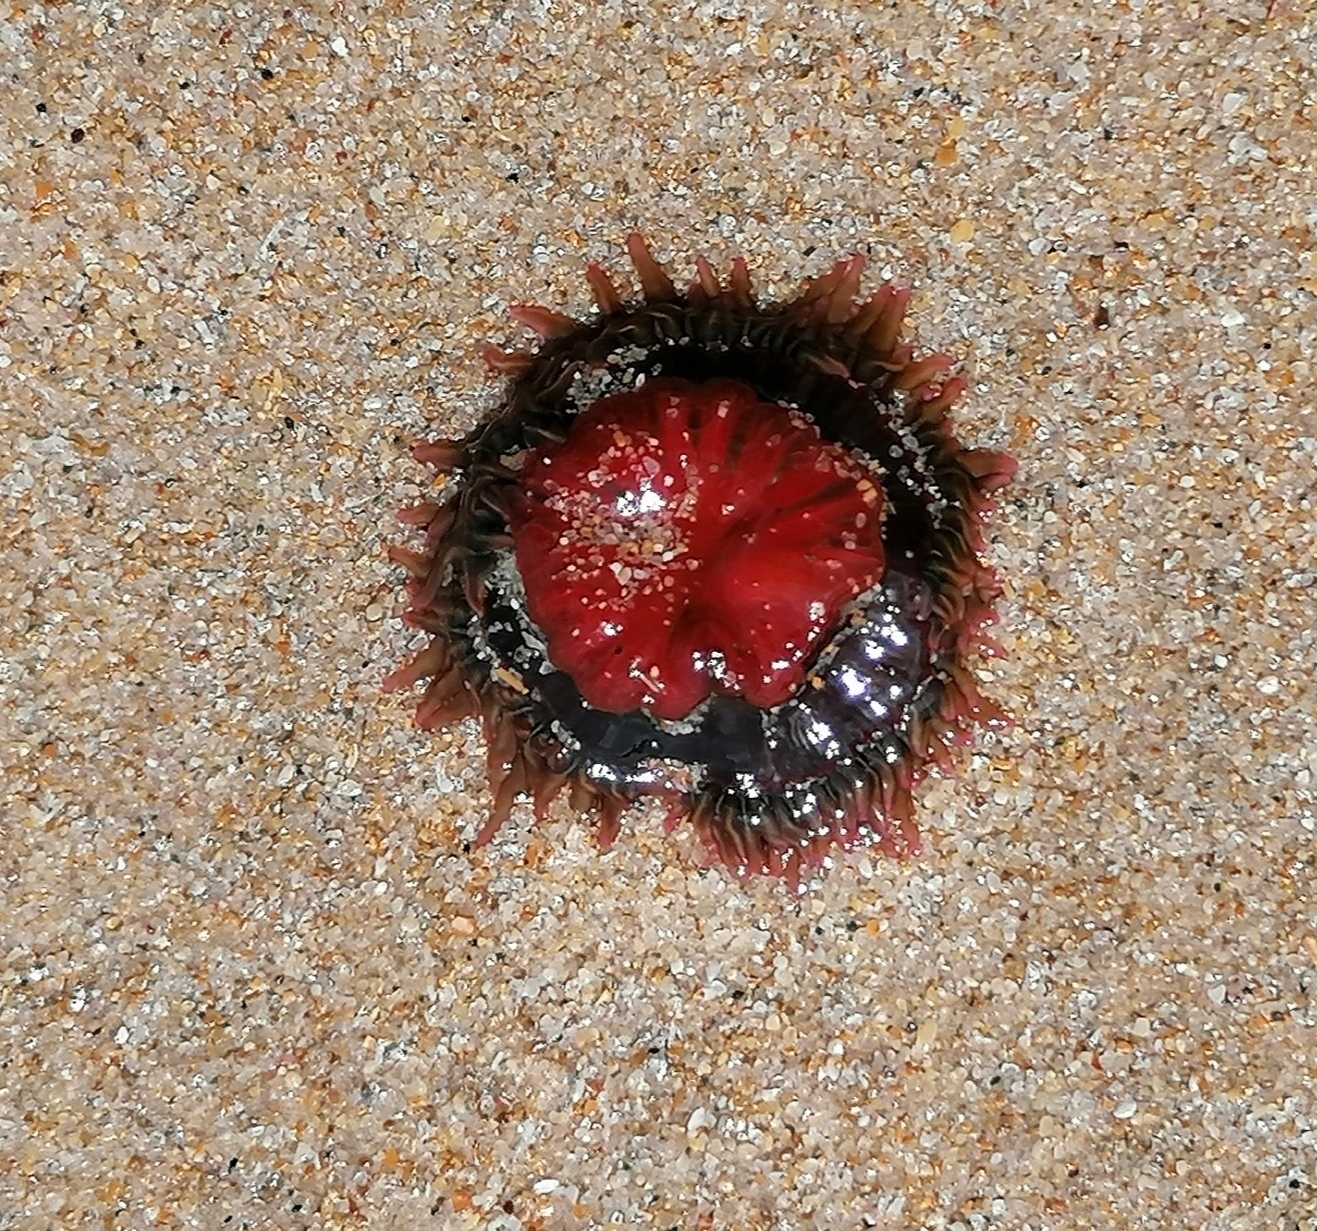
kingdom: Animalia
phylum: Cnidaria
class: Anthozoa
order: Actiniaria
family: Actiniidae
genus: Anthopleura
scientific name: Anthopleura michaelseni
